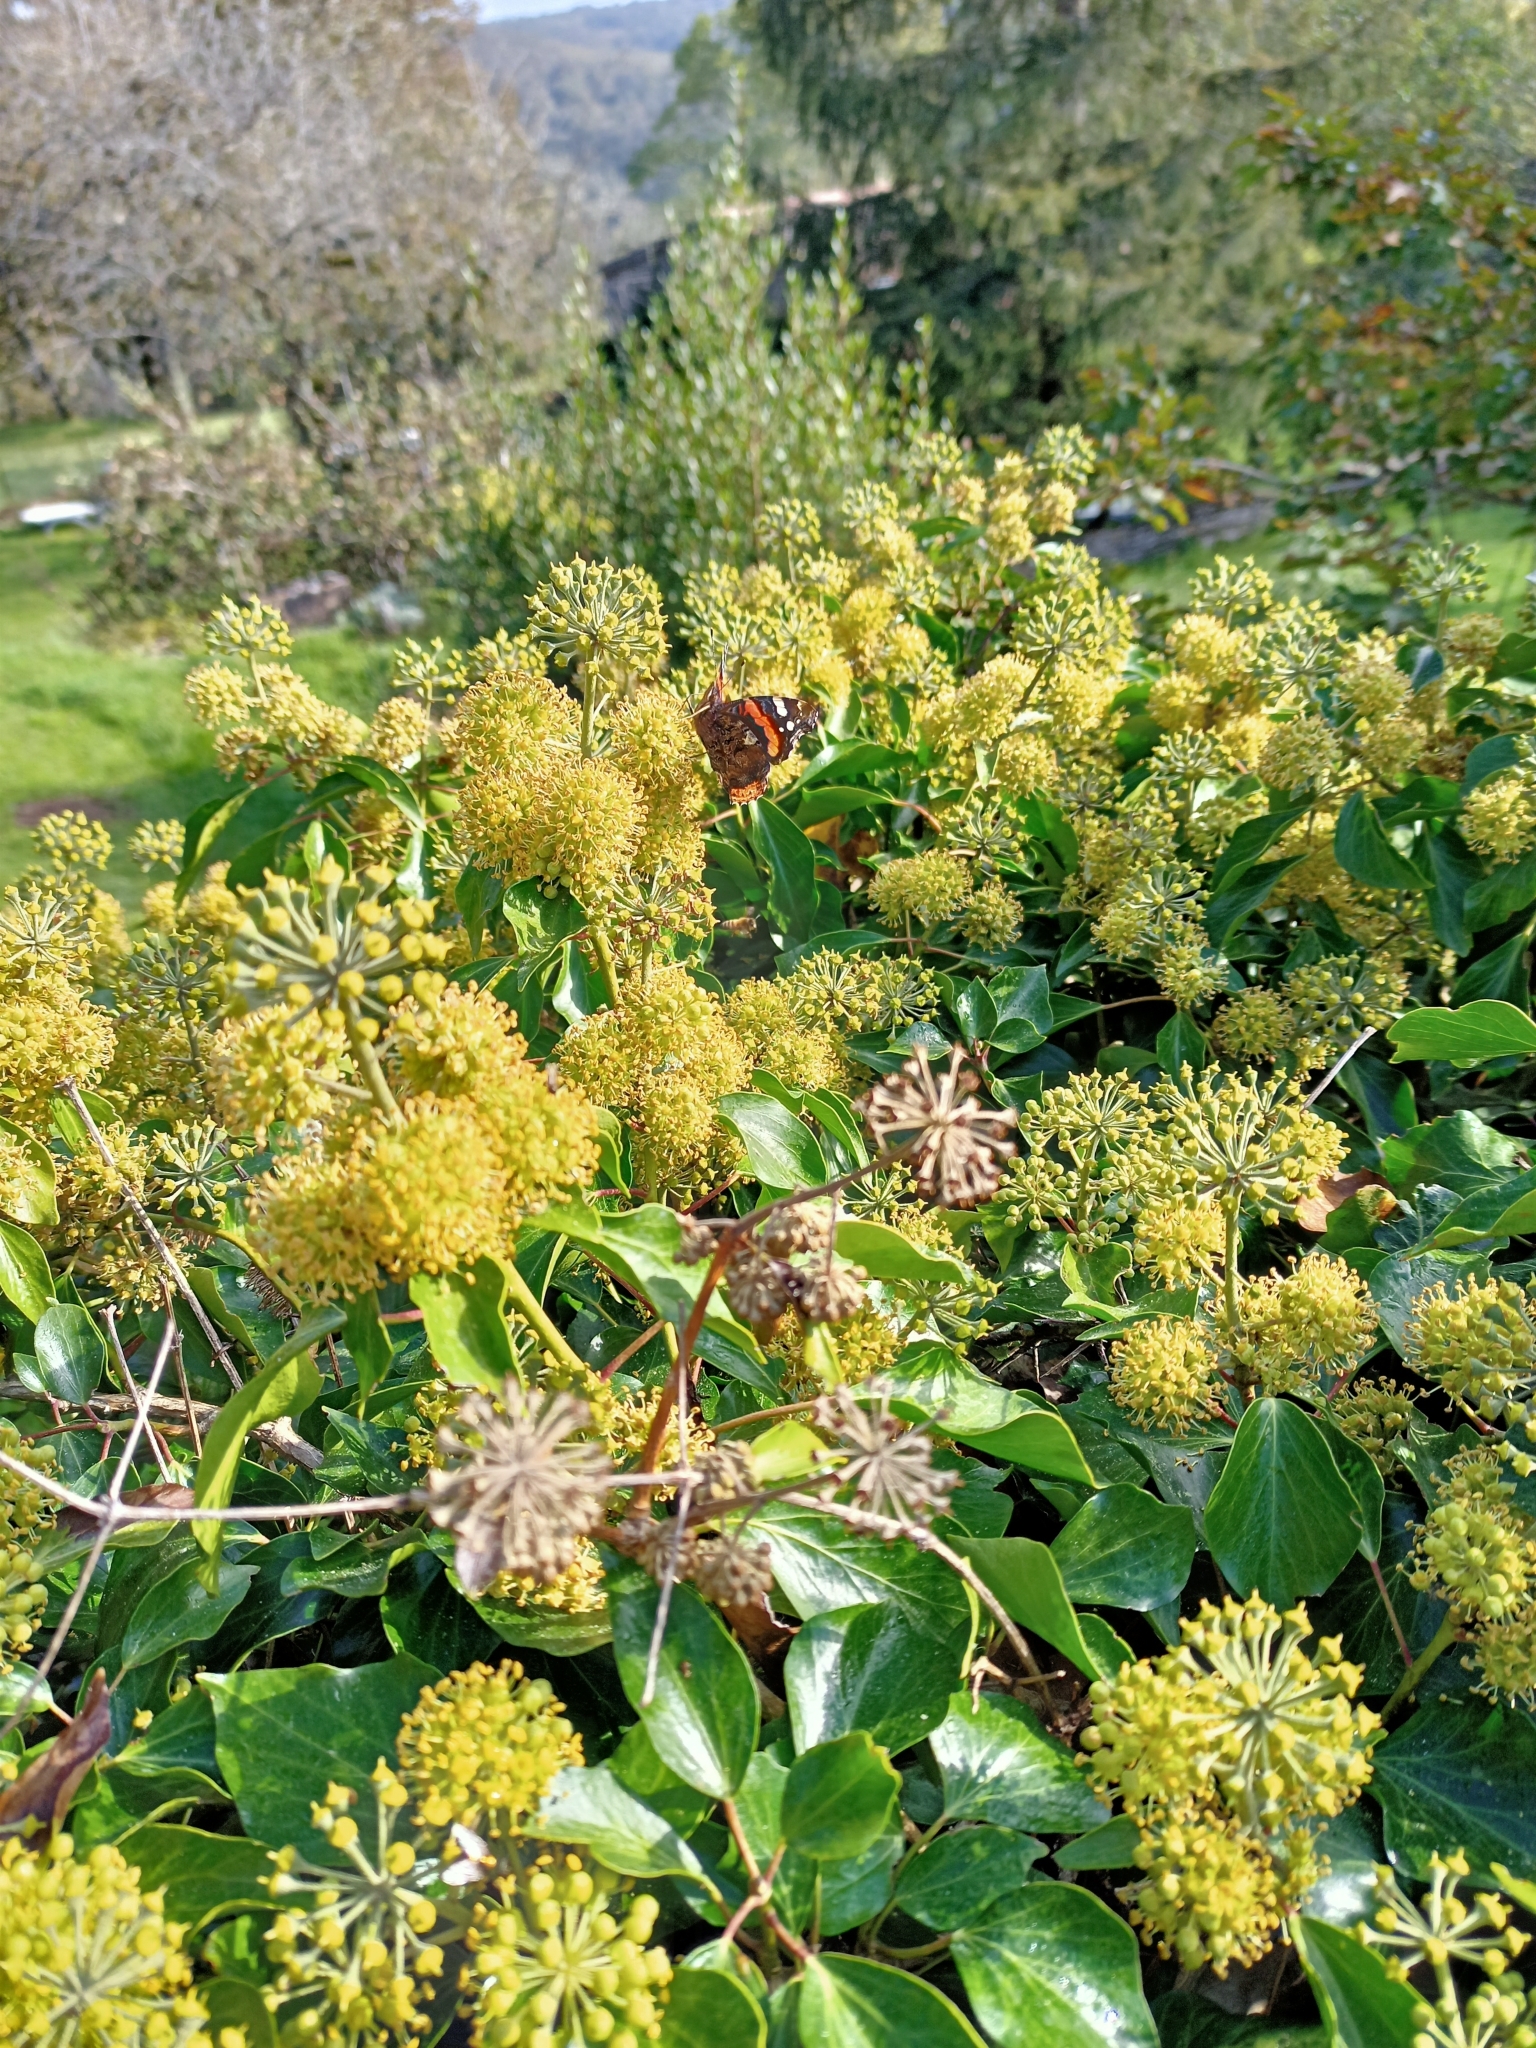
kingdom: Animalia
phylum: Arthropoda
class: Insecta
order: Lepidoptera
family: Nymphalidae
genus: Vanessa
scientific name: Vanessa atalanta
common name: Red admiral
